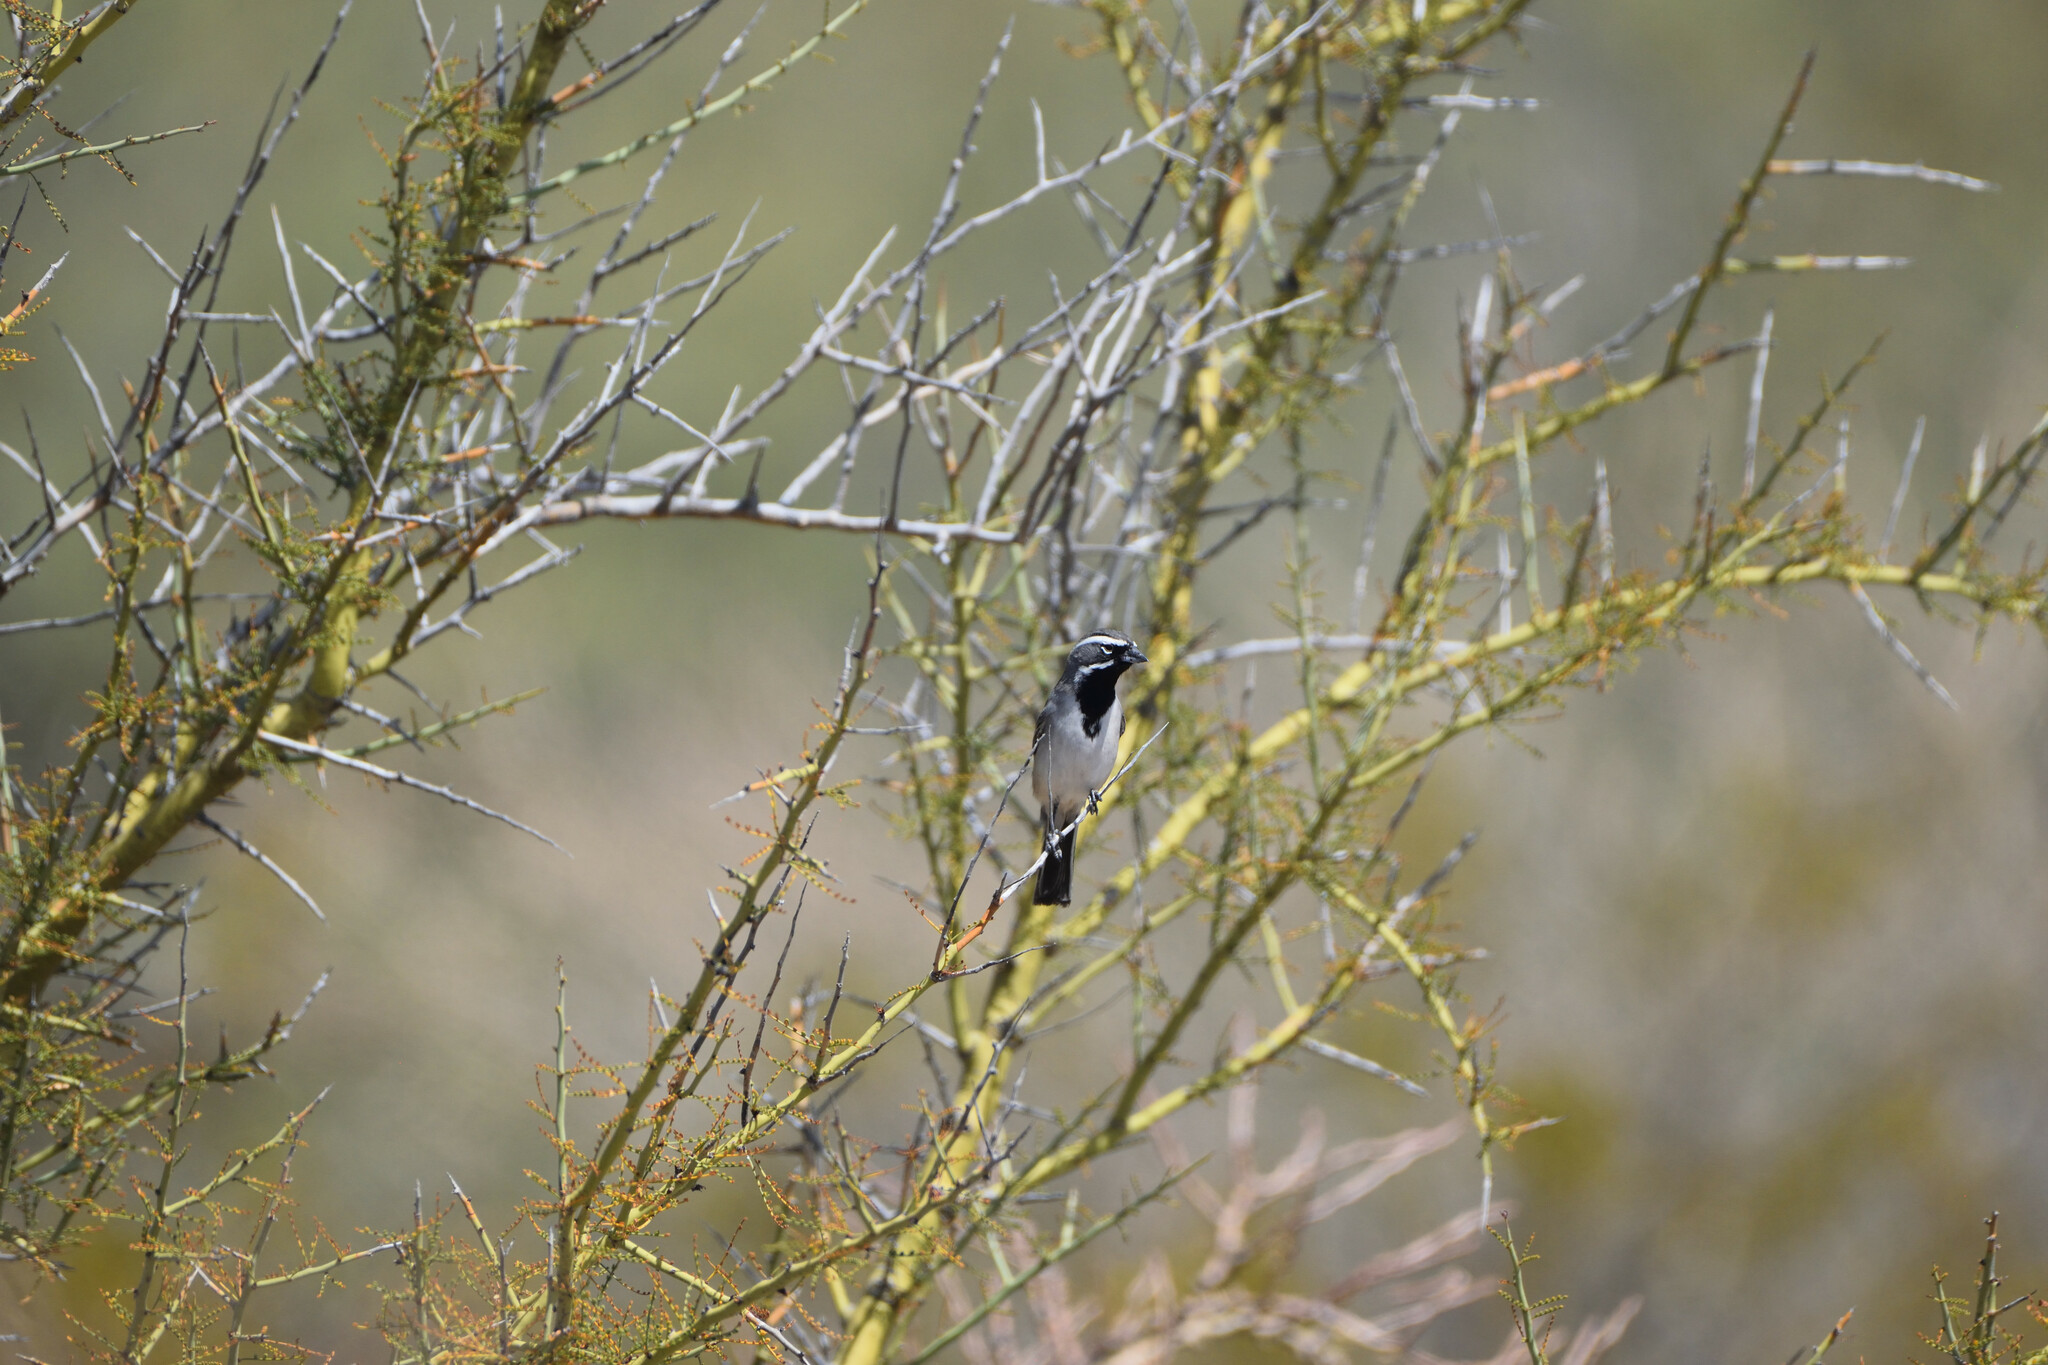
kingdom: Animalia
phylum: Chordata
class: Aves
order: Passeriformes
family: Passerellidae
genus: Amphispiza
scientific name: Amphispiza bilineata
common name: Black-throated sparrow
